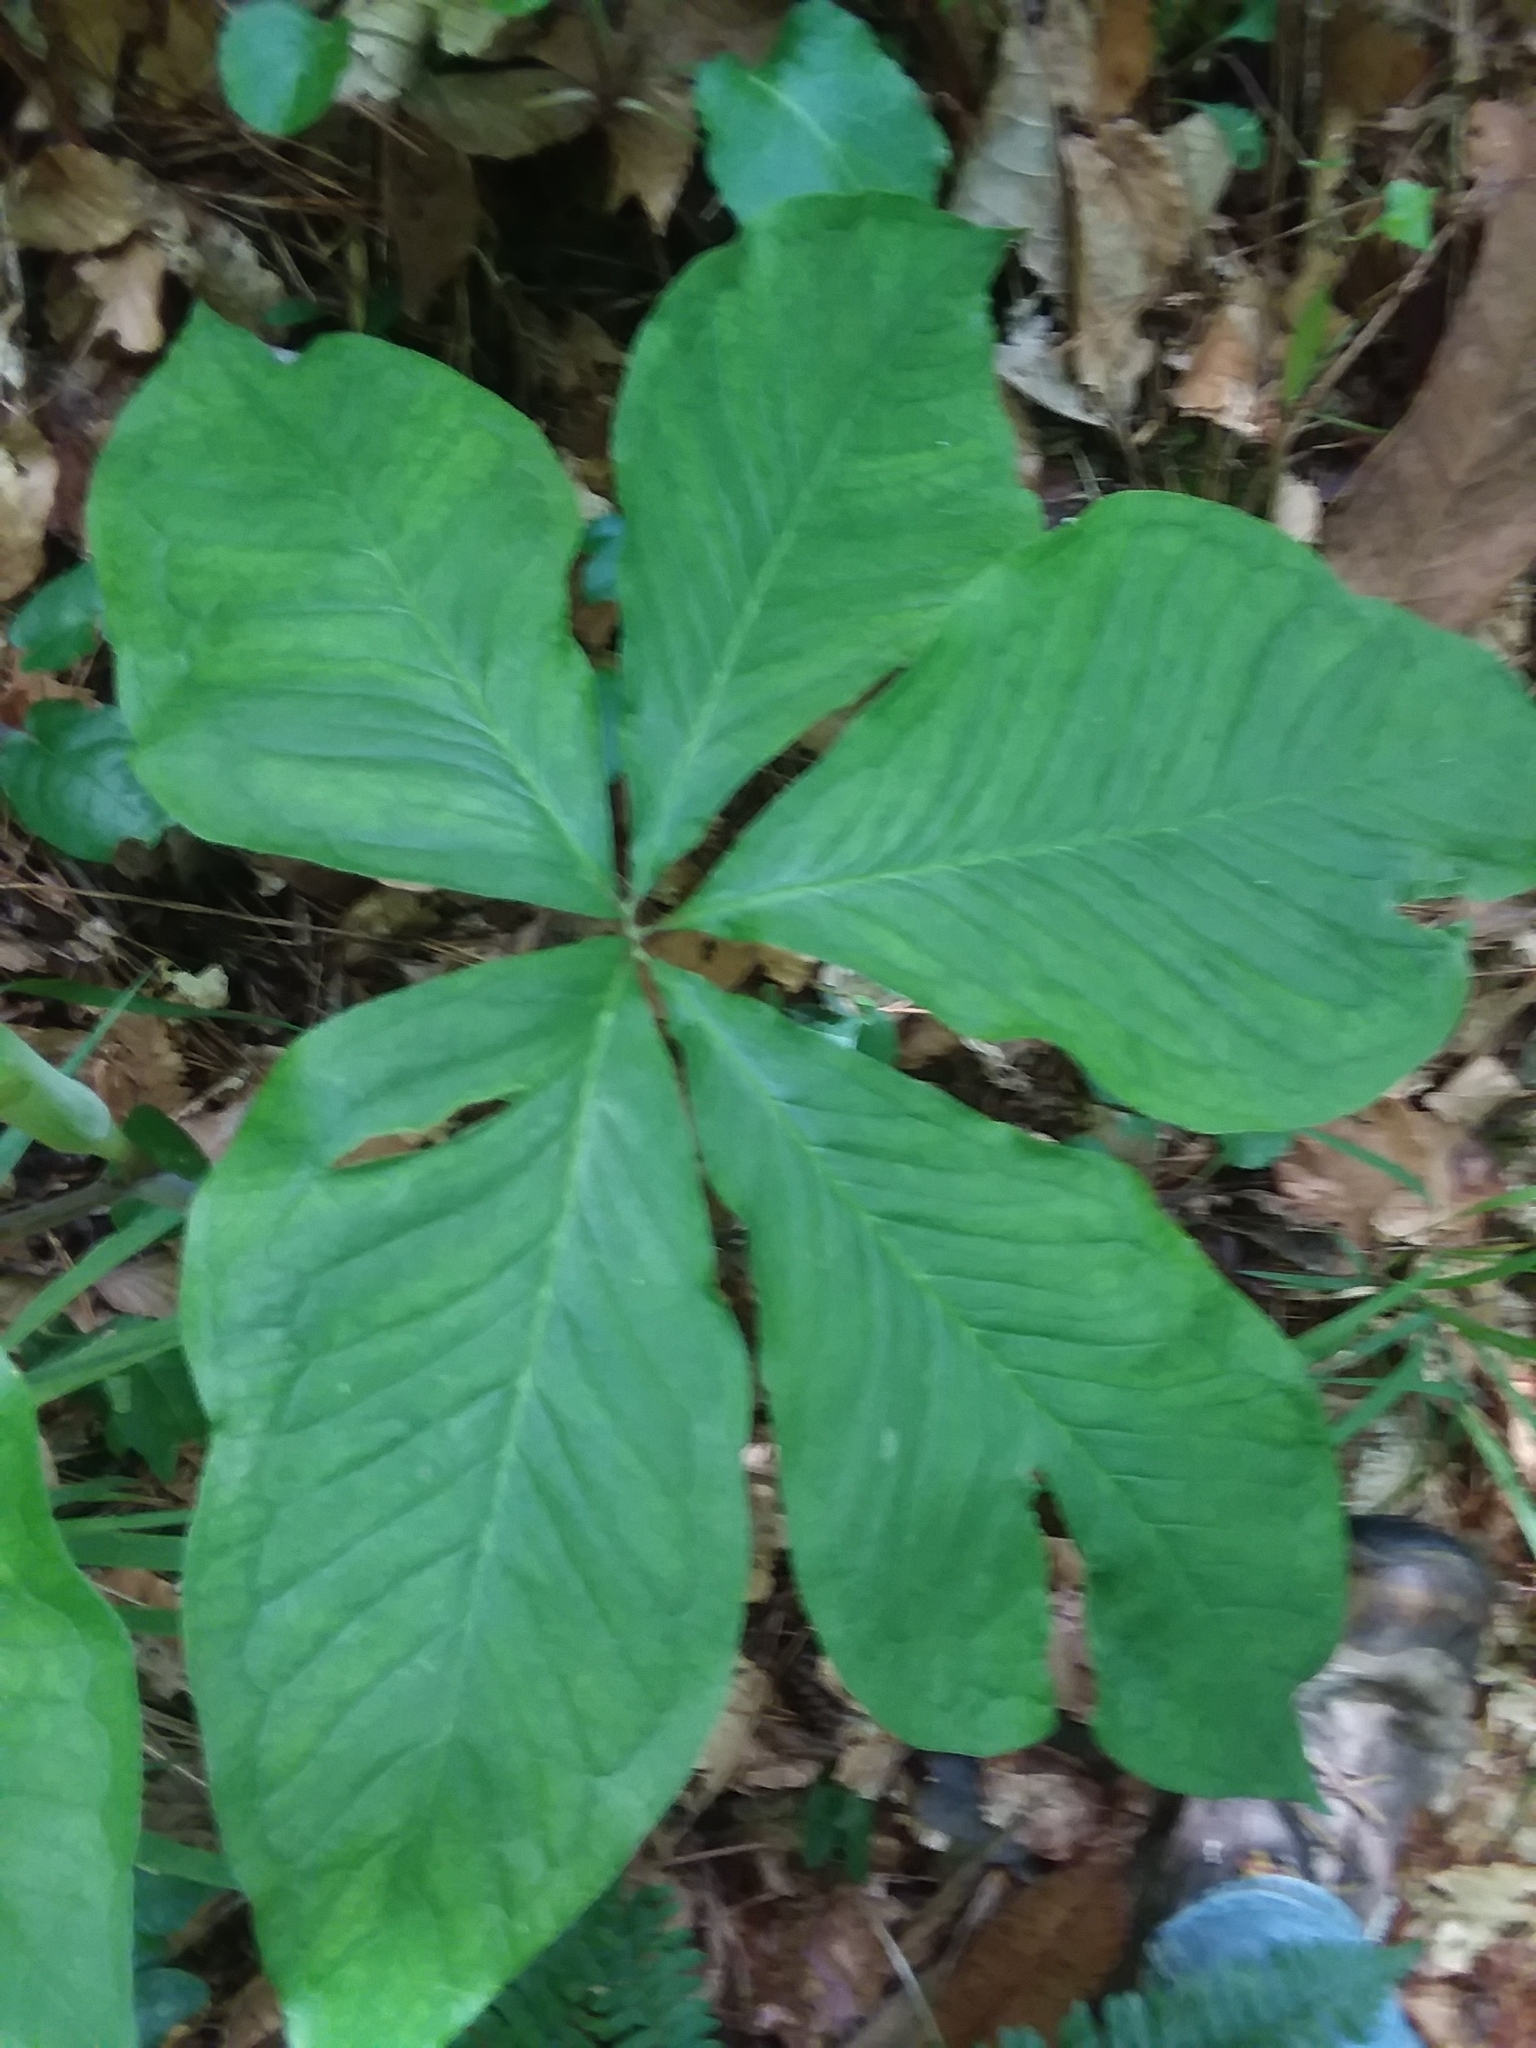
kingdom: Plantae
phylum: Tracheophyta
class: Liliopsida
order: Alismatales
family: Araceae
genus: Arisaema
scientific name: Arisaema quinatum
